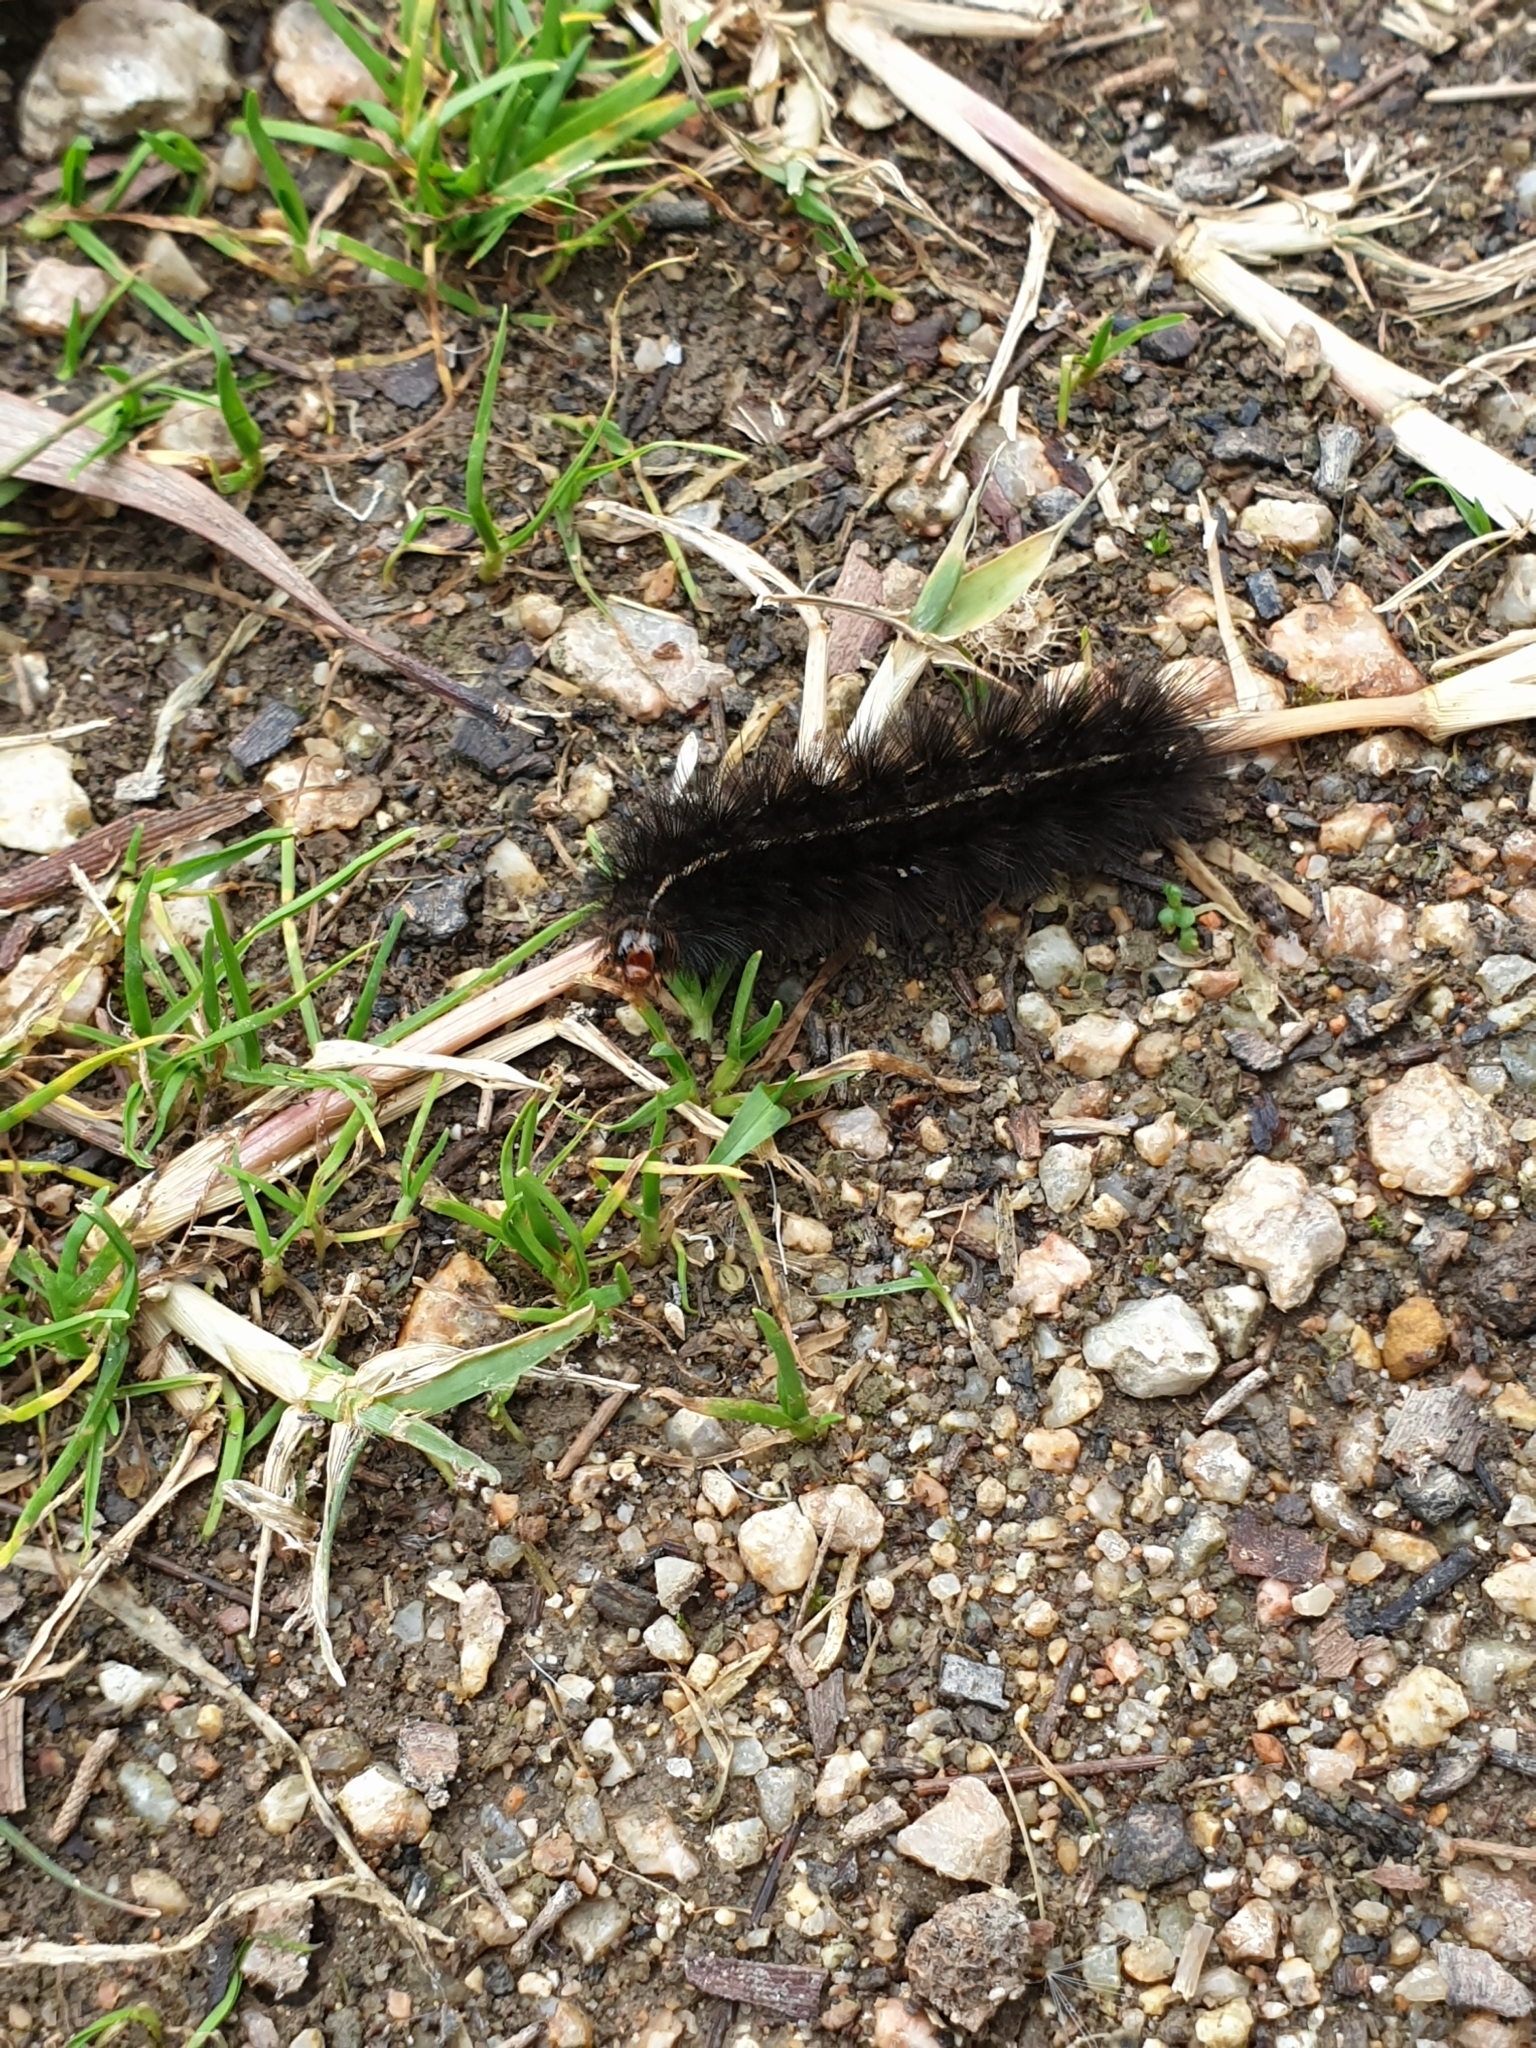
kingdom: Animalia
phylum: Arthropoda
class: Insecta
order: Lepidoptera
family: Erebidae
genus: Ardices
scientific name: Ardices curvata
